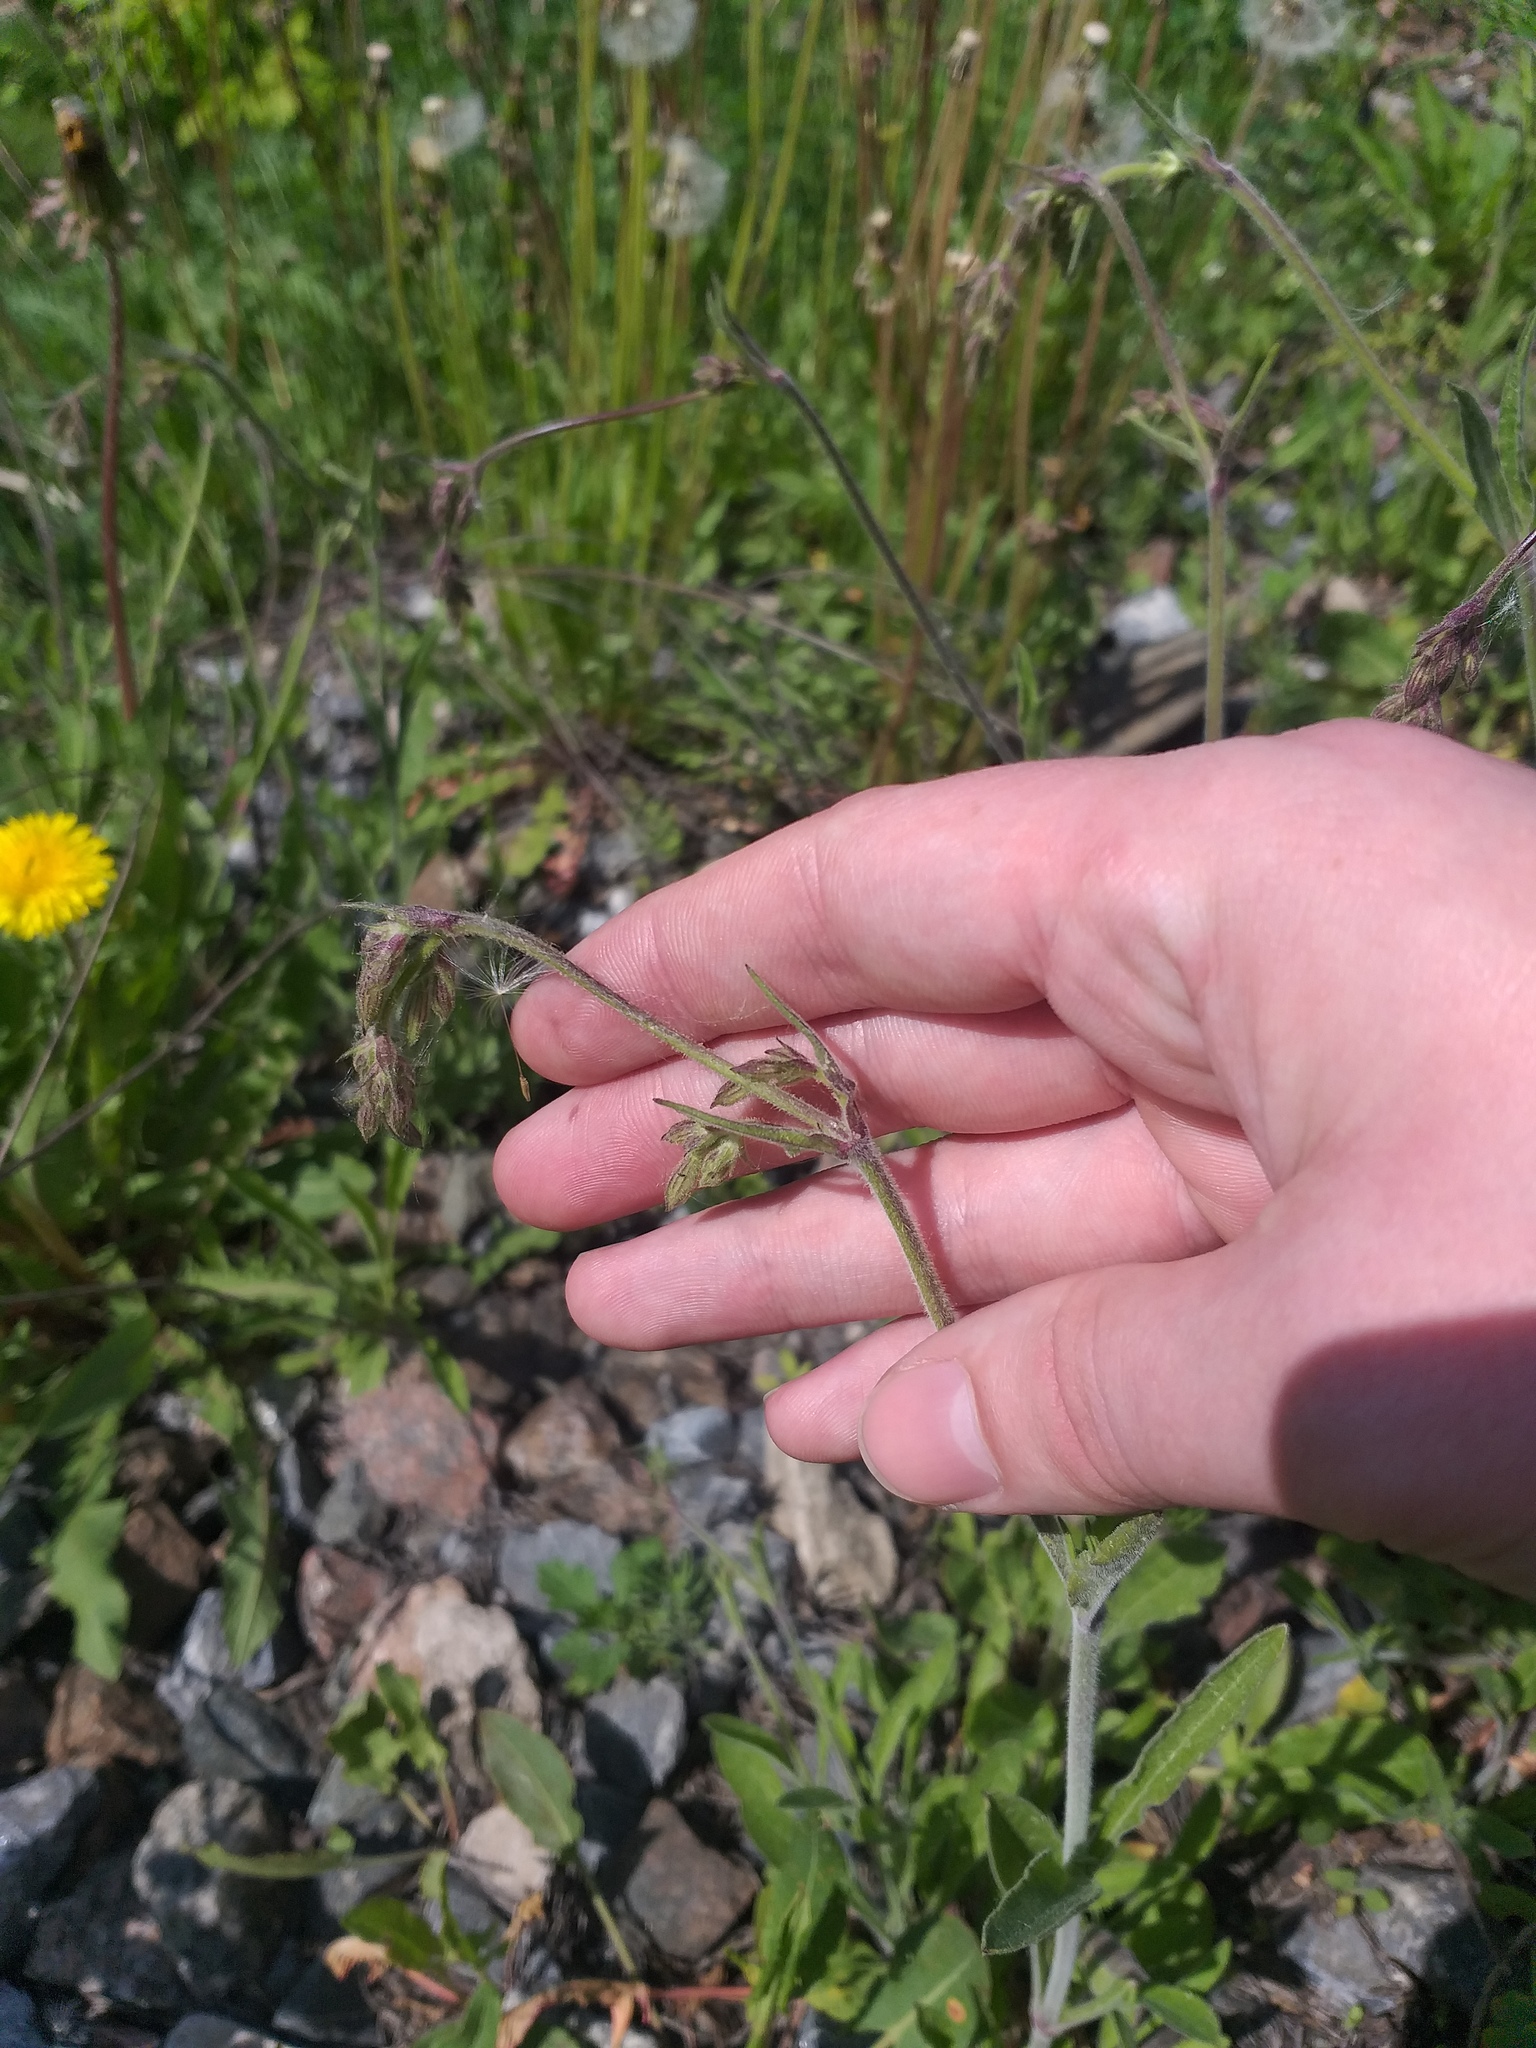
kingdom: Plantae
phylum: Tracheophyta
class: Magnoliopsida
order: Caryophyllales
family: Caryophyllaceae
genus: Silene
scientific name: Silene nutans
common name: Nottingham catchfly
